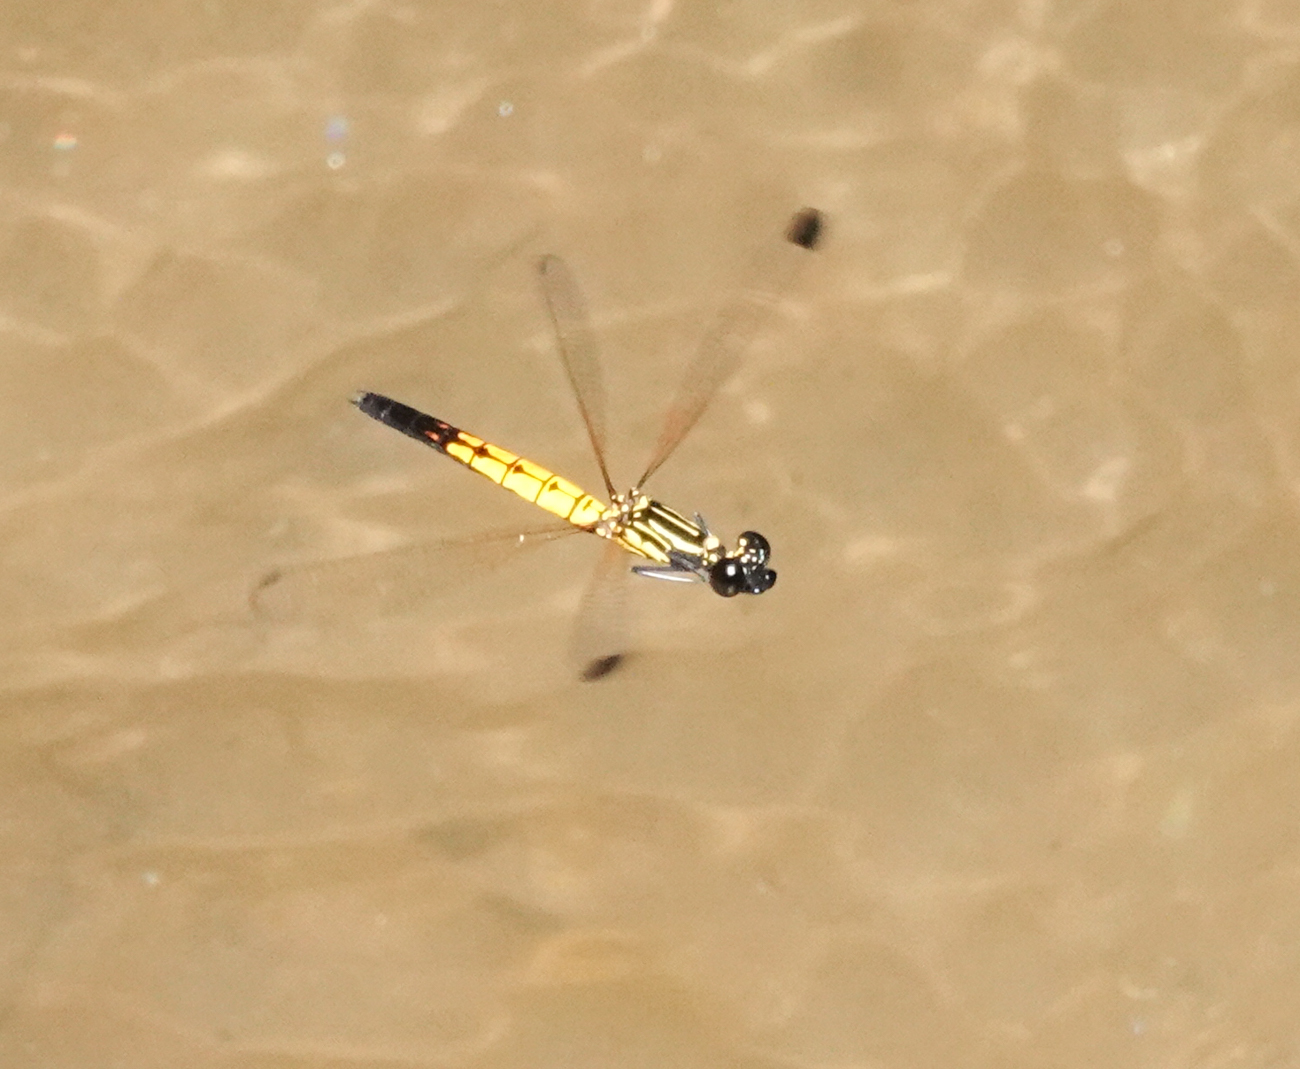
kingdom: Animalia
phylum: Arthropoda
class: Insecta
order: Odonata
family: Chlorocyphidae
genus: Libellago
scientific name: Libellago lineata
